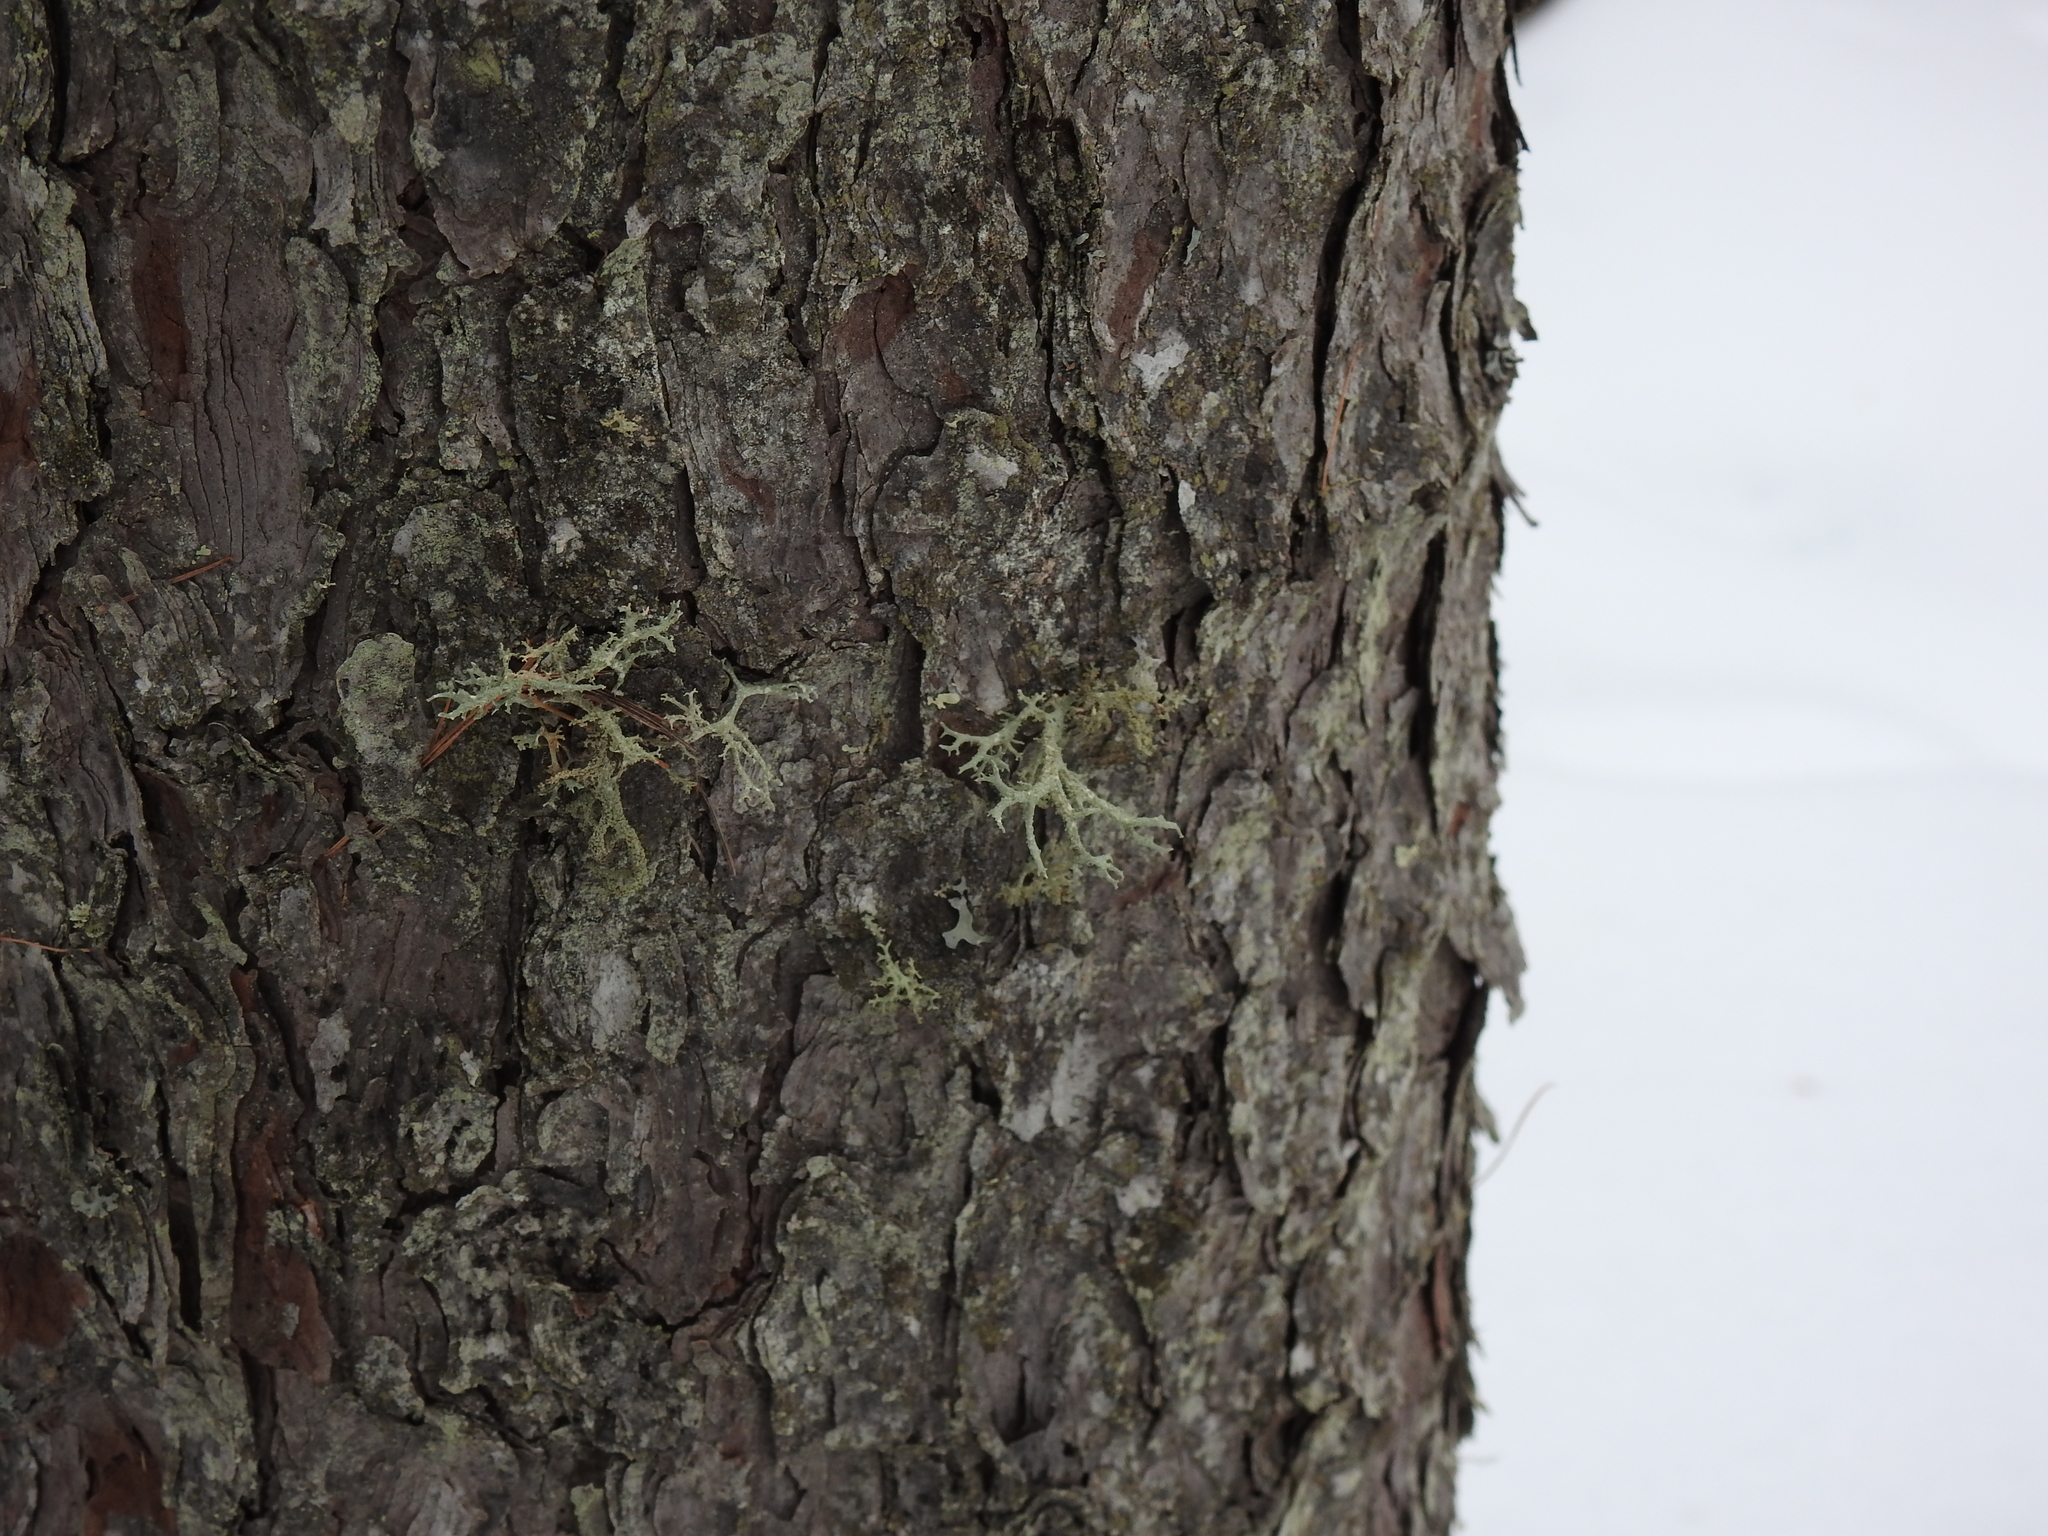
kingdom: Fungi
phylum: Ascomycota
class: Lecanoromycetes
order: Lecanorales
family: Parmeliaceae
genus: Evernia
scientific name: Evernia mesomorpha
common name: Boreal oak moss lichen
